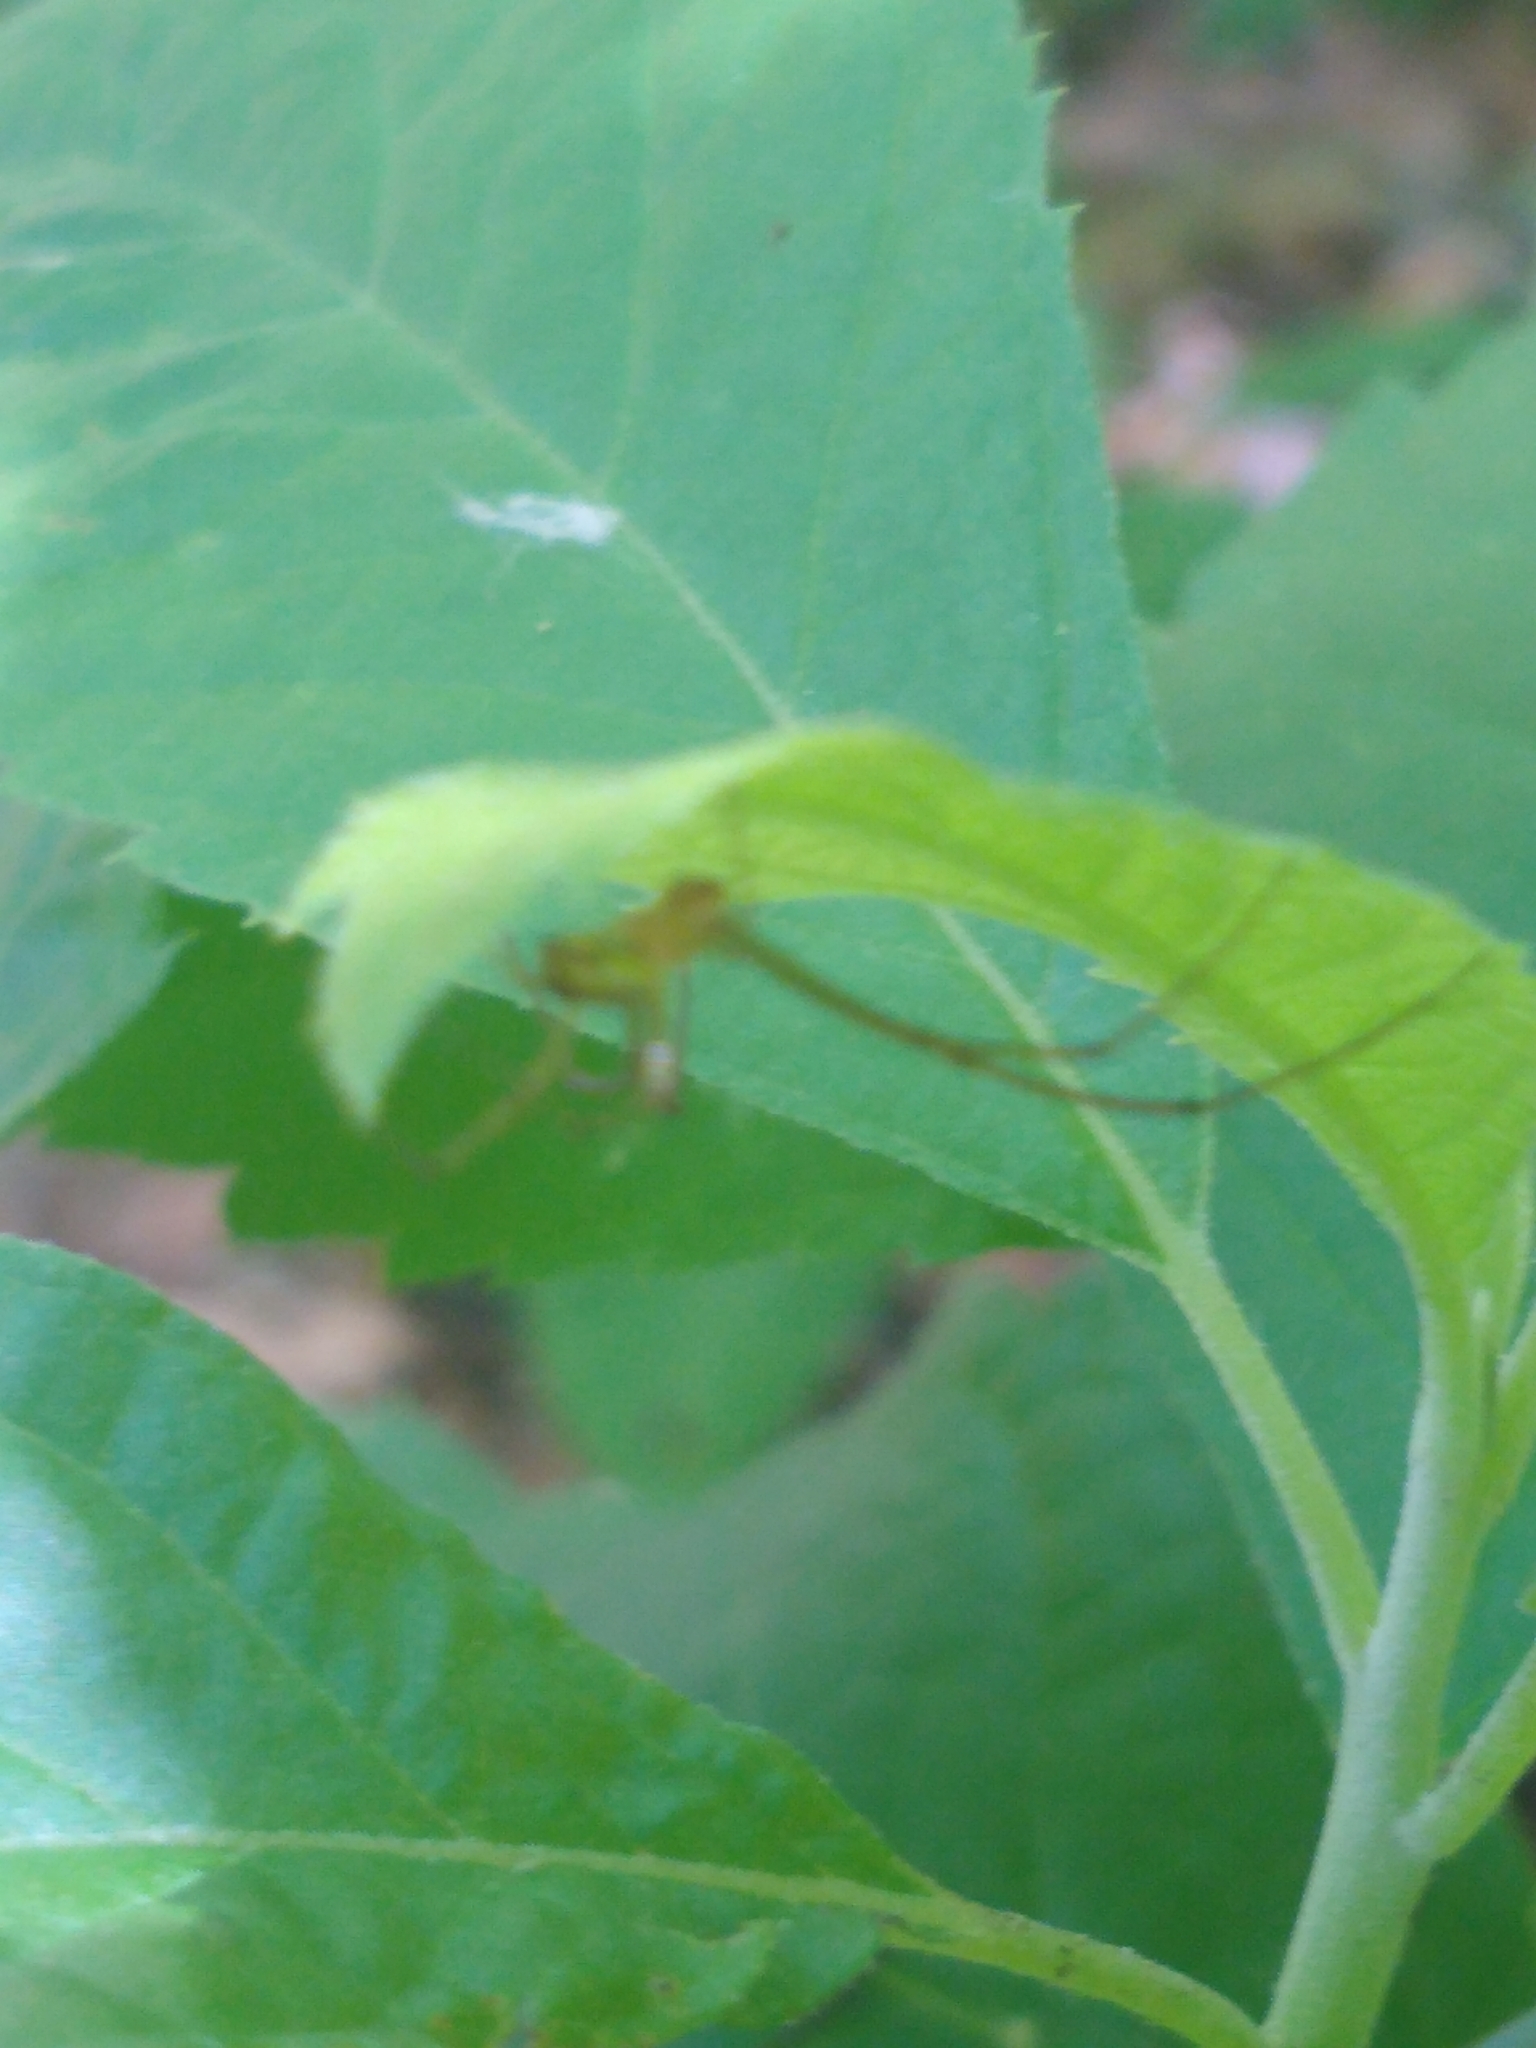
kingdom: Animalia
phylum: Arthropoda
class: Arachnida
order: Araneae
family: Tetragnathidae
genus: Leucauge
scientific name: Leucauge venusta
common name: Longjawed orb weavers
